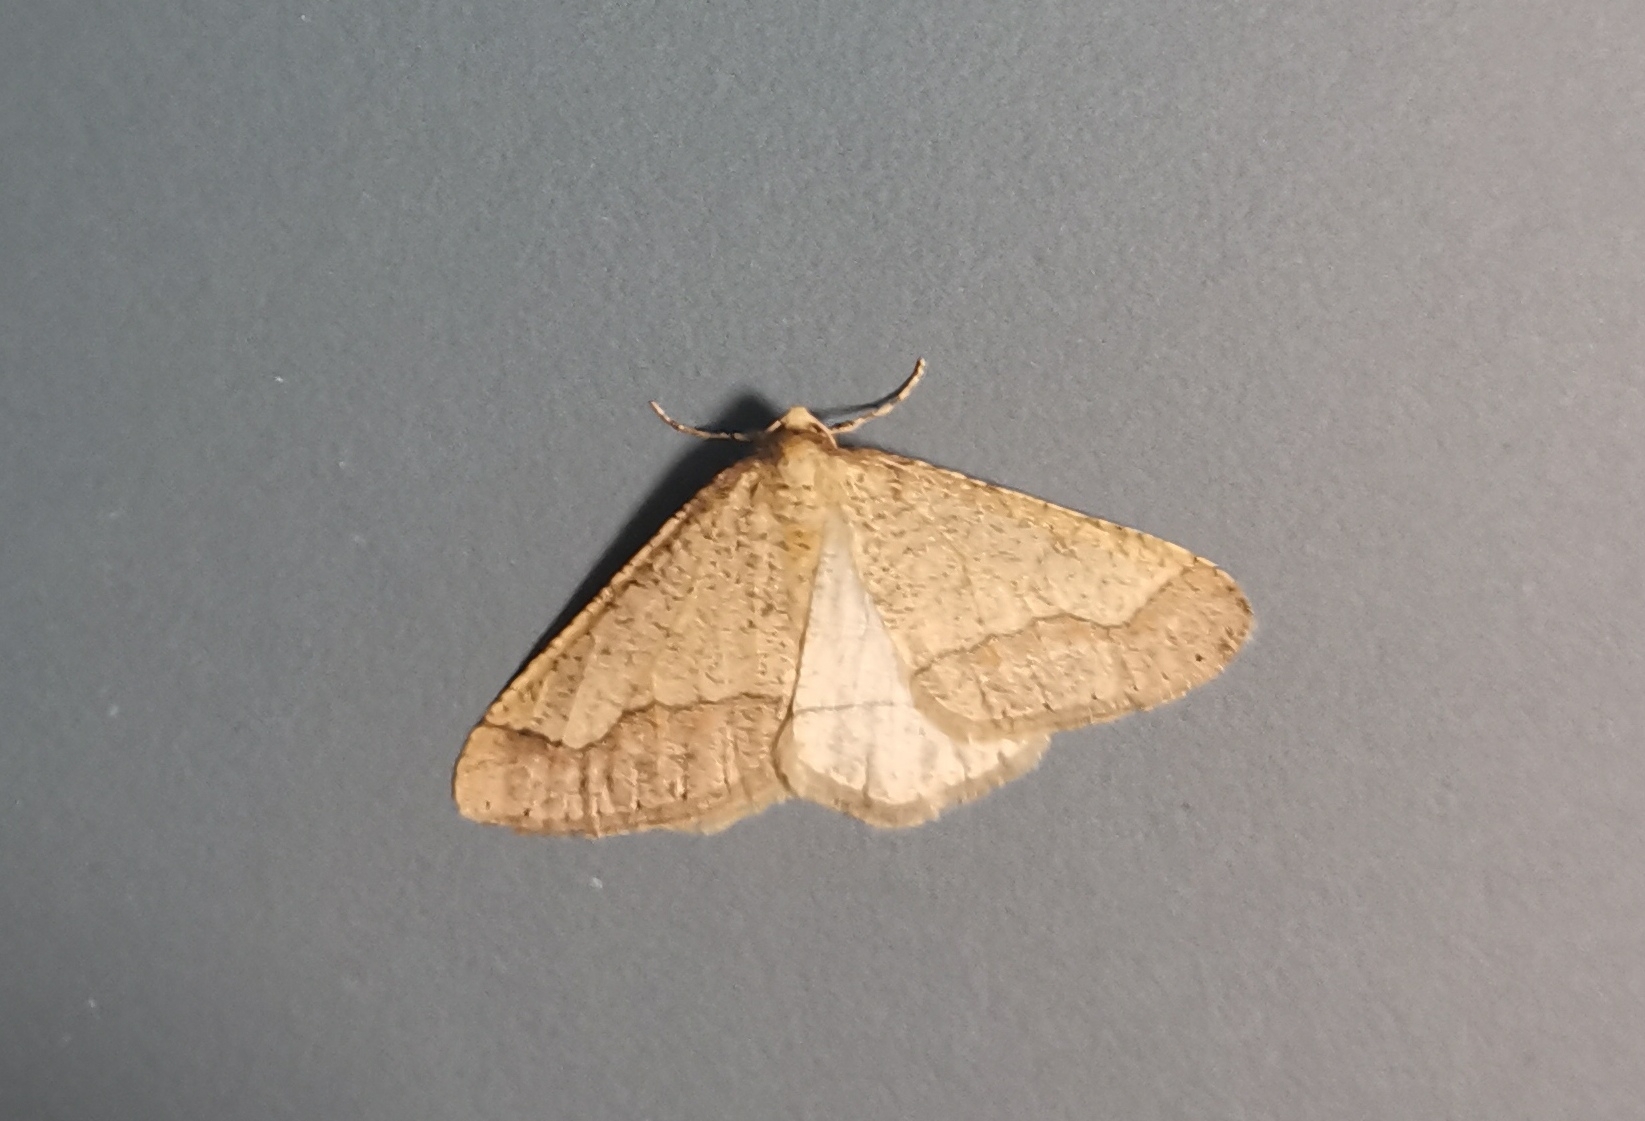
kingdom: Animalia
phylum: Arthropoda
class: Insecta
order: Lepidoptera
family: Geometridae
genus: Agriopis
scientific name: Agriopis marginaria
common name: Dotted border
